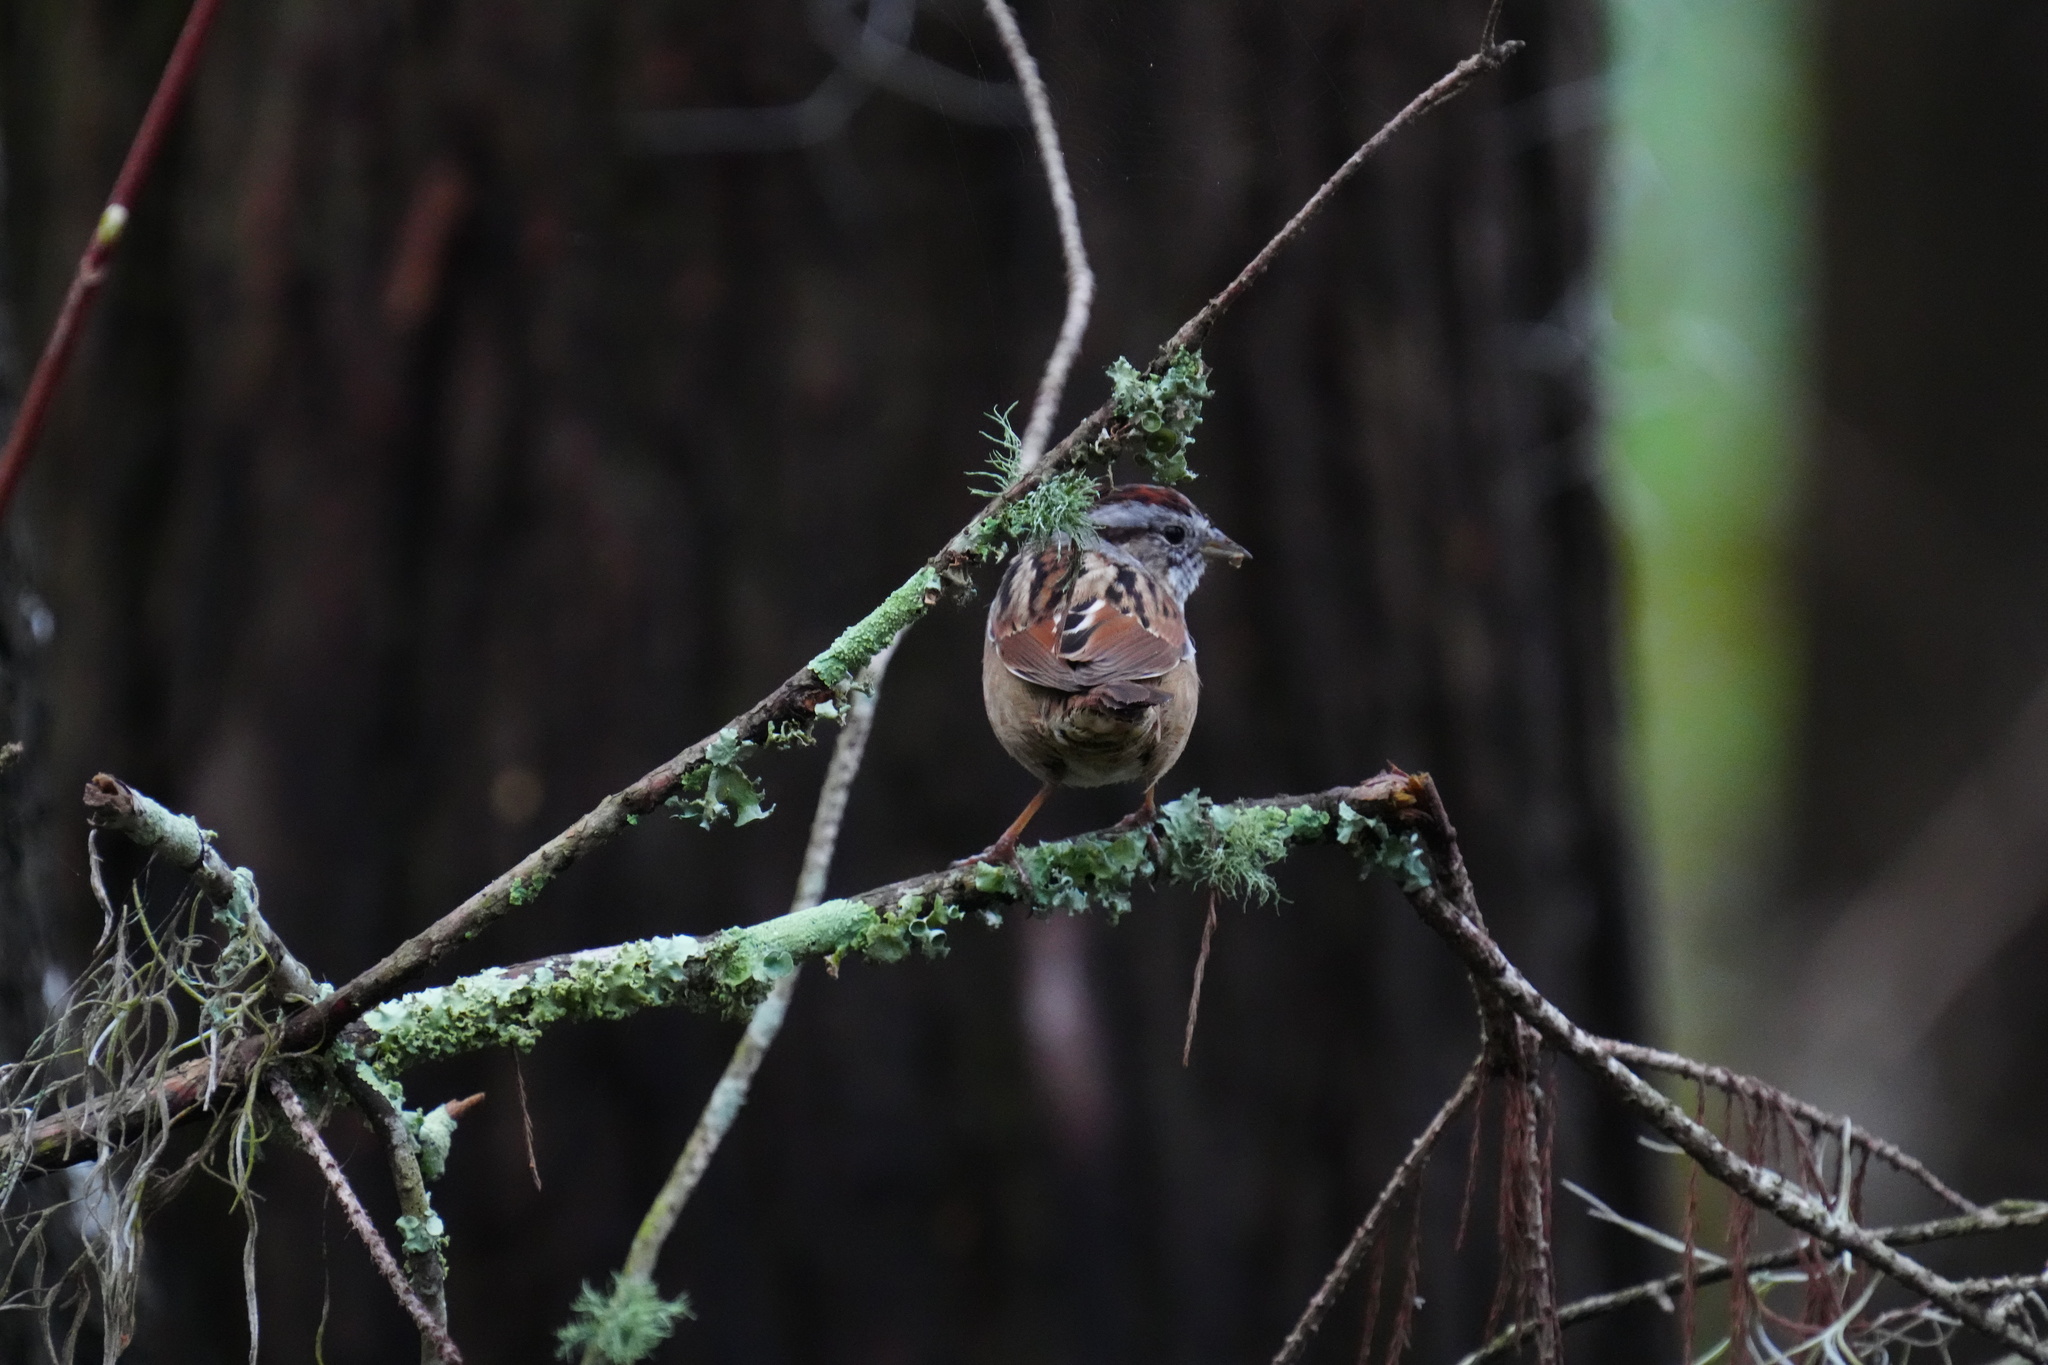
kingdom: Animalia
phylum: Chordata
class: Aves
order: Passeriformes
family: Passerellidae
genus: Melospiza
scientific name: Melospiza georgiana
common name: Swamp sparrow
